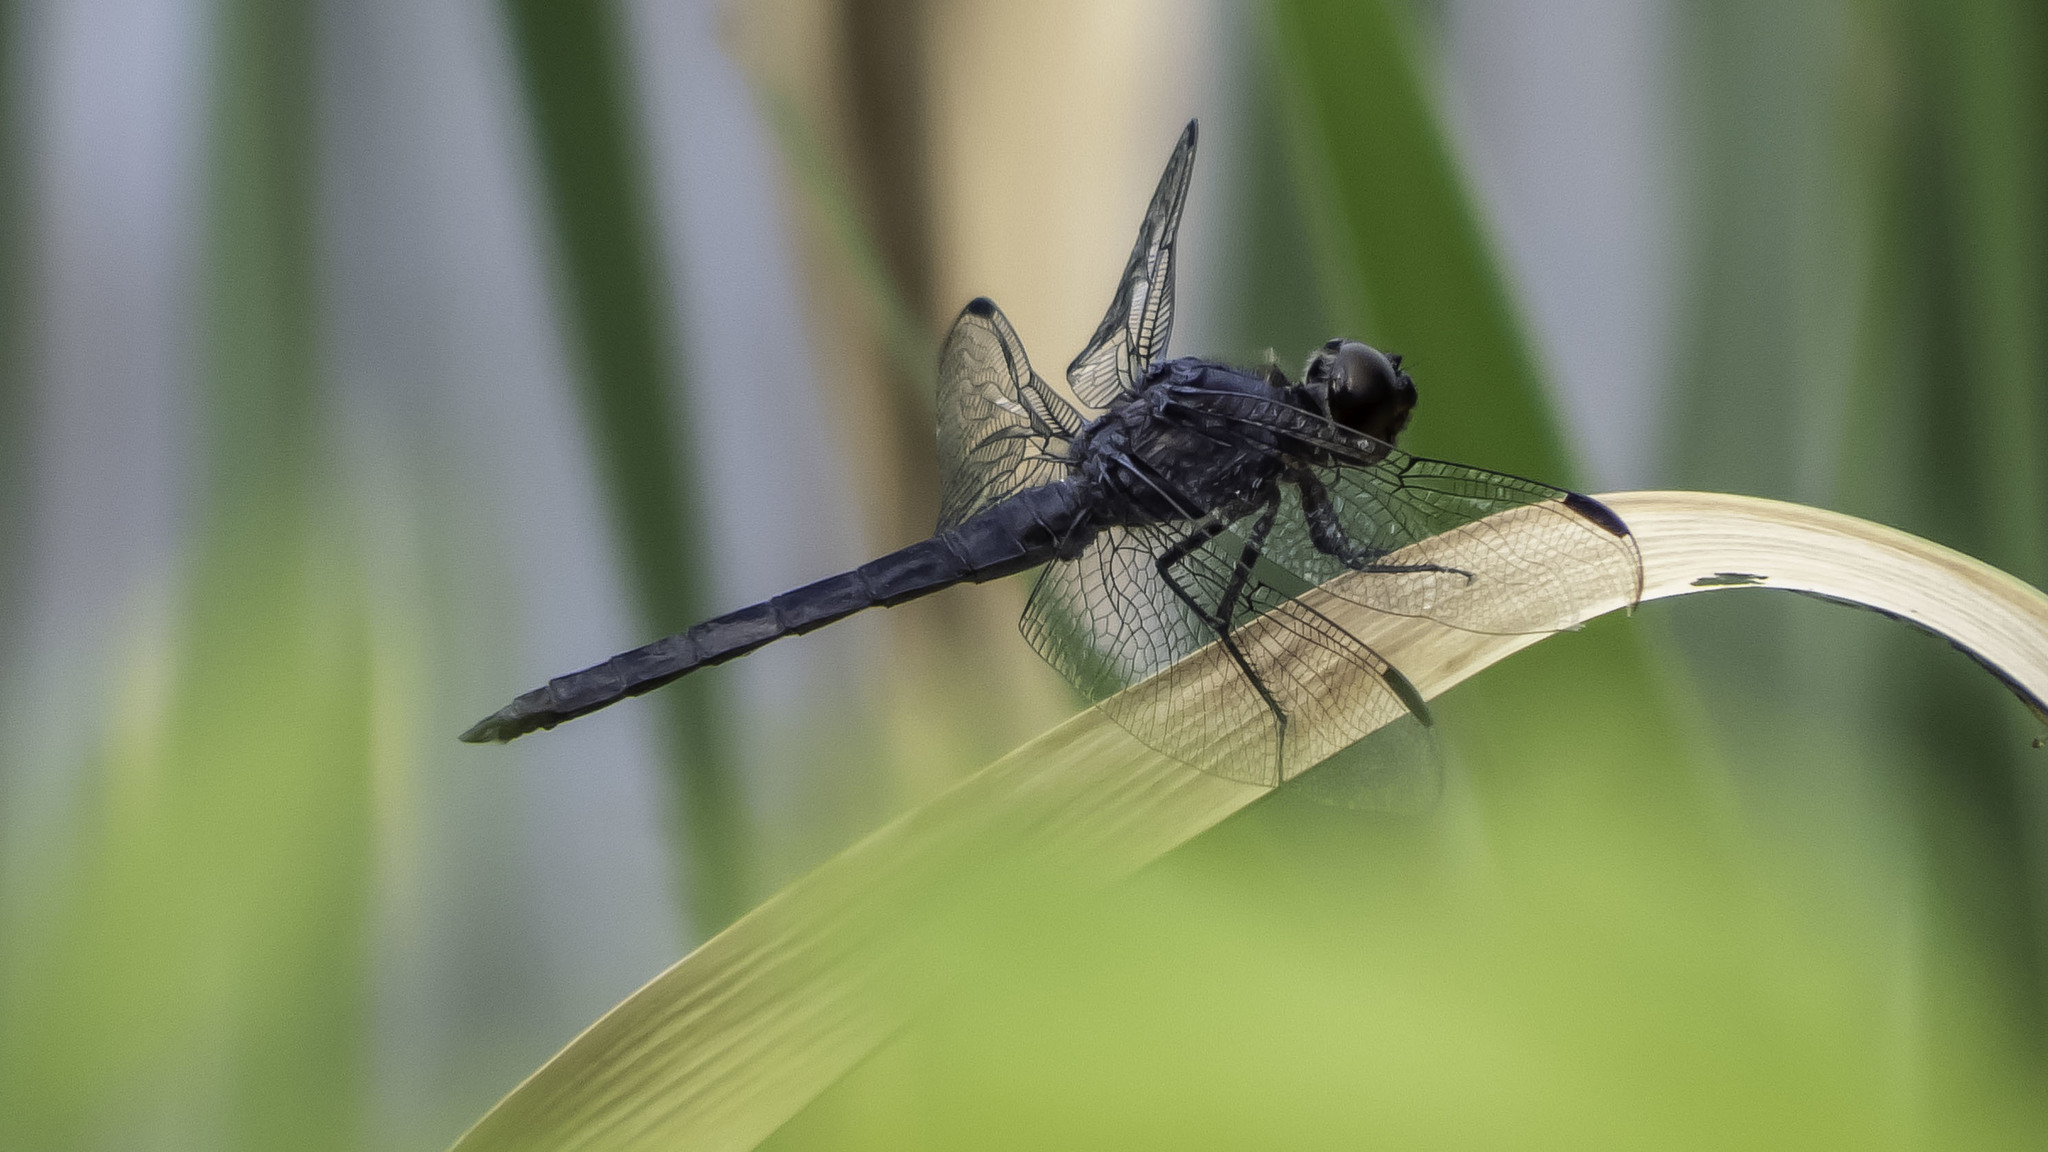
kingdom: Animalia
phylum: Arthropoda
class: Insecta
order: Odonata
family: Libellulidae
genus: Libellula
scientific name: Libellula incesta
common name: Slaty skimmer
